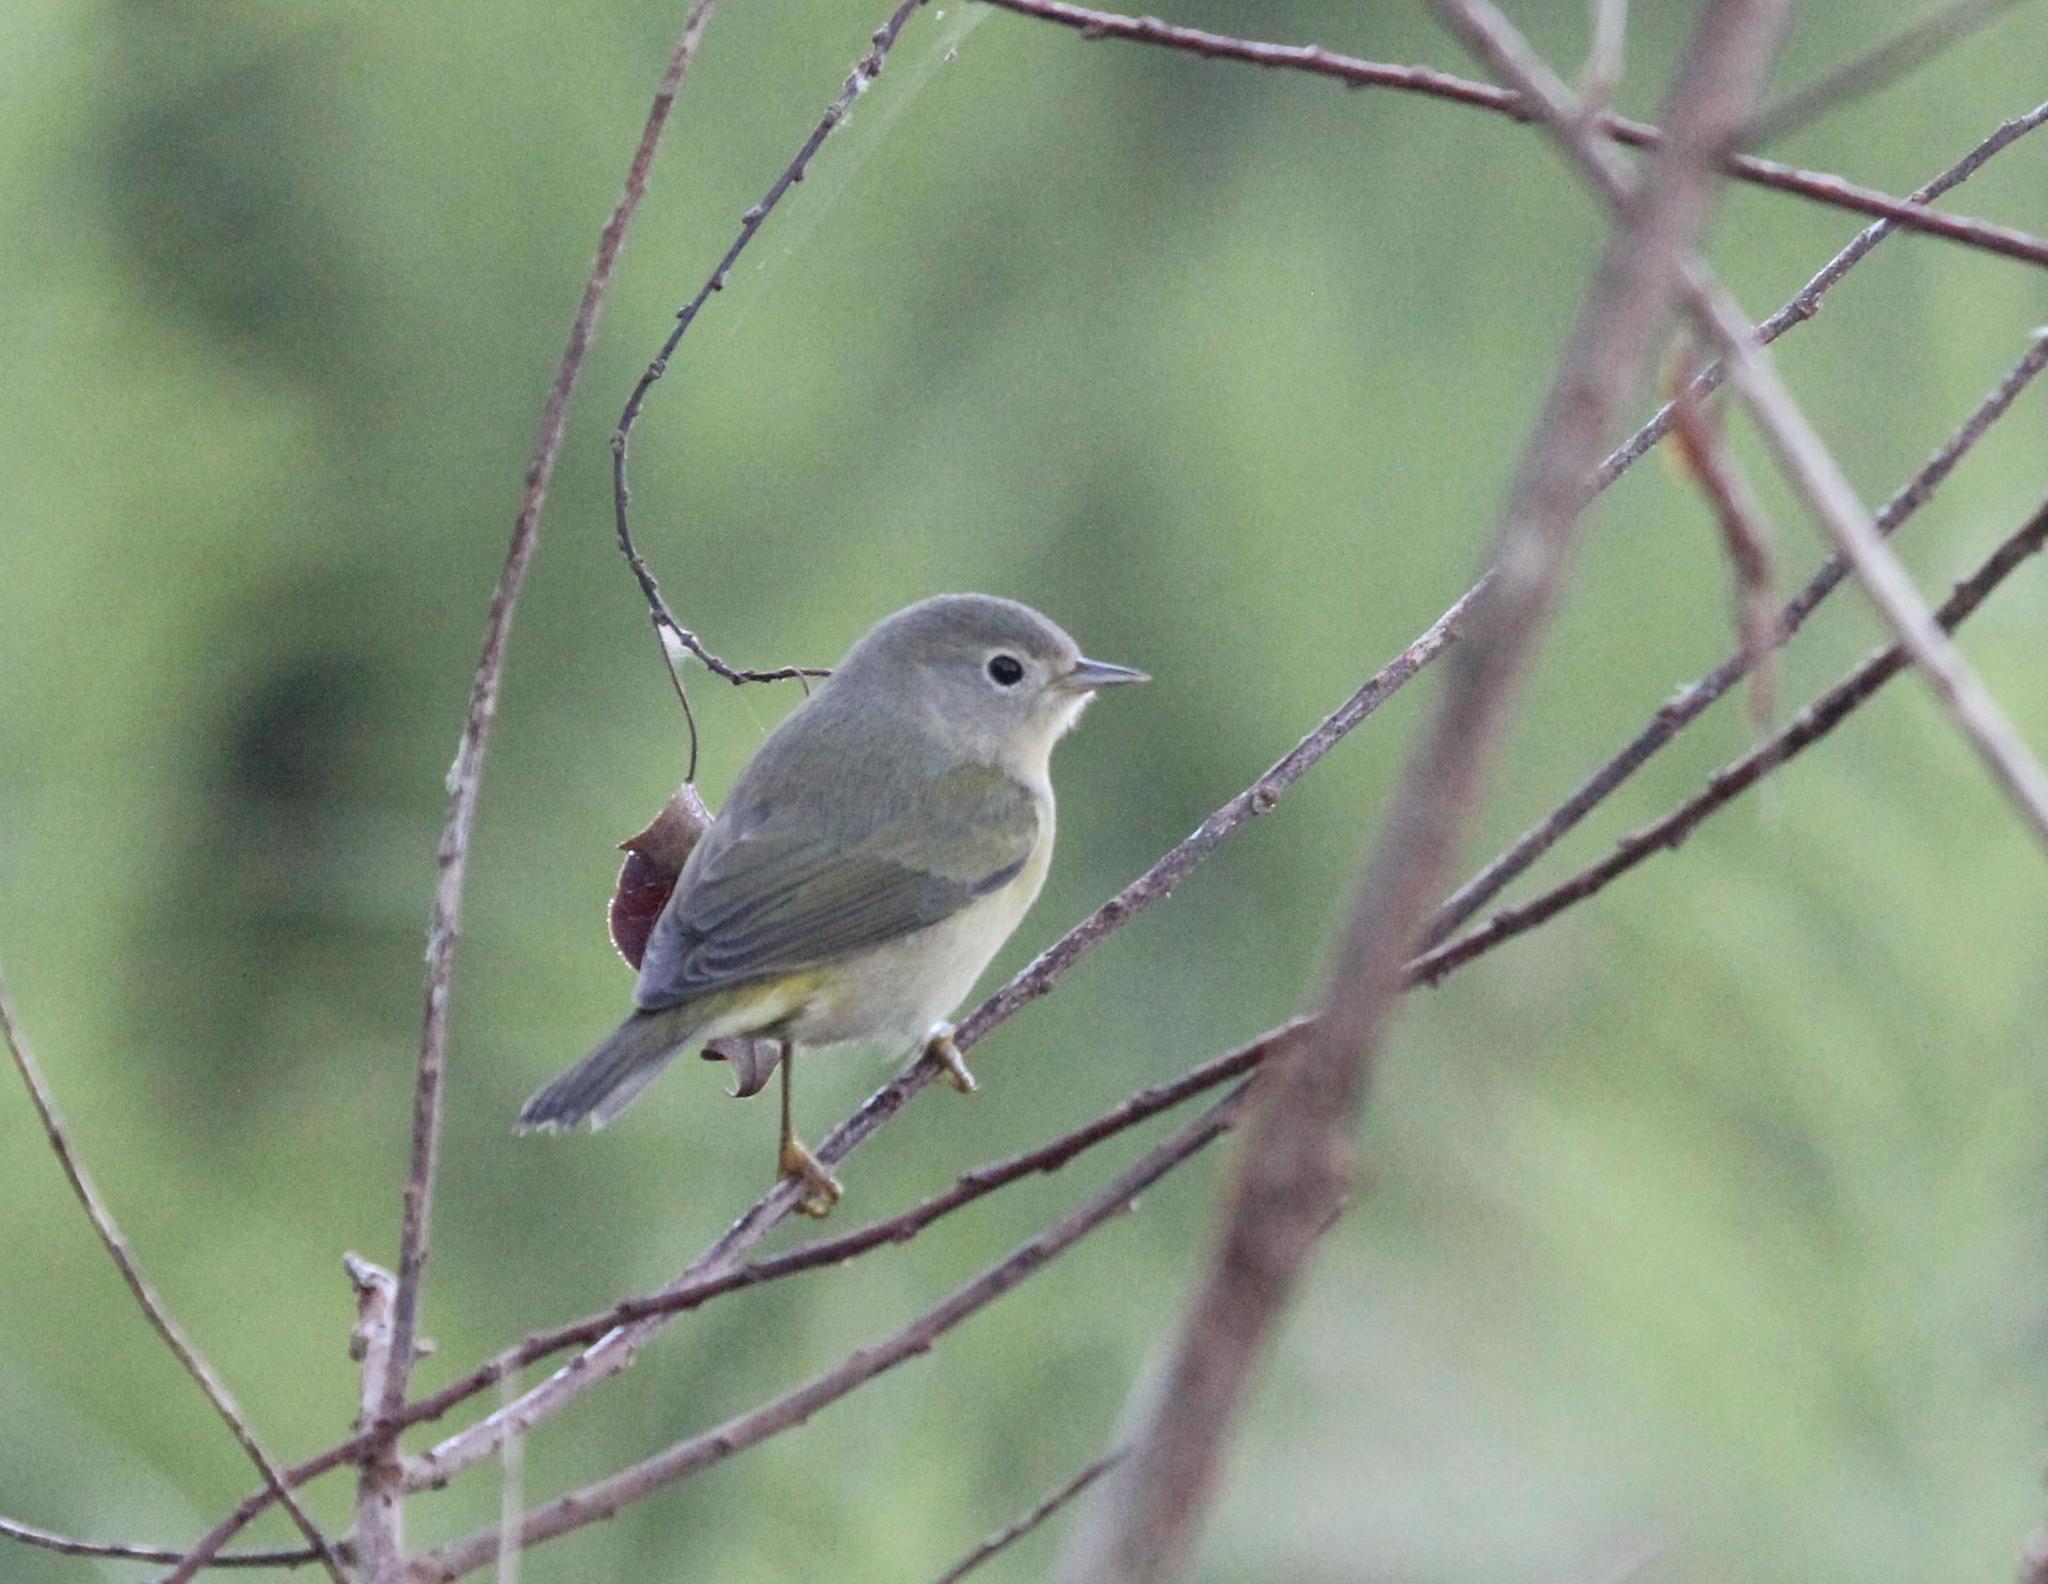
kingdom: Animalia
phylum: Chordata
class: Aves
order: Passeriformes
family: Parulidae
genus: Leiothlypis
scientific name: Leiothlypis ruficapilla
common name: Nashville warbler
